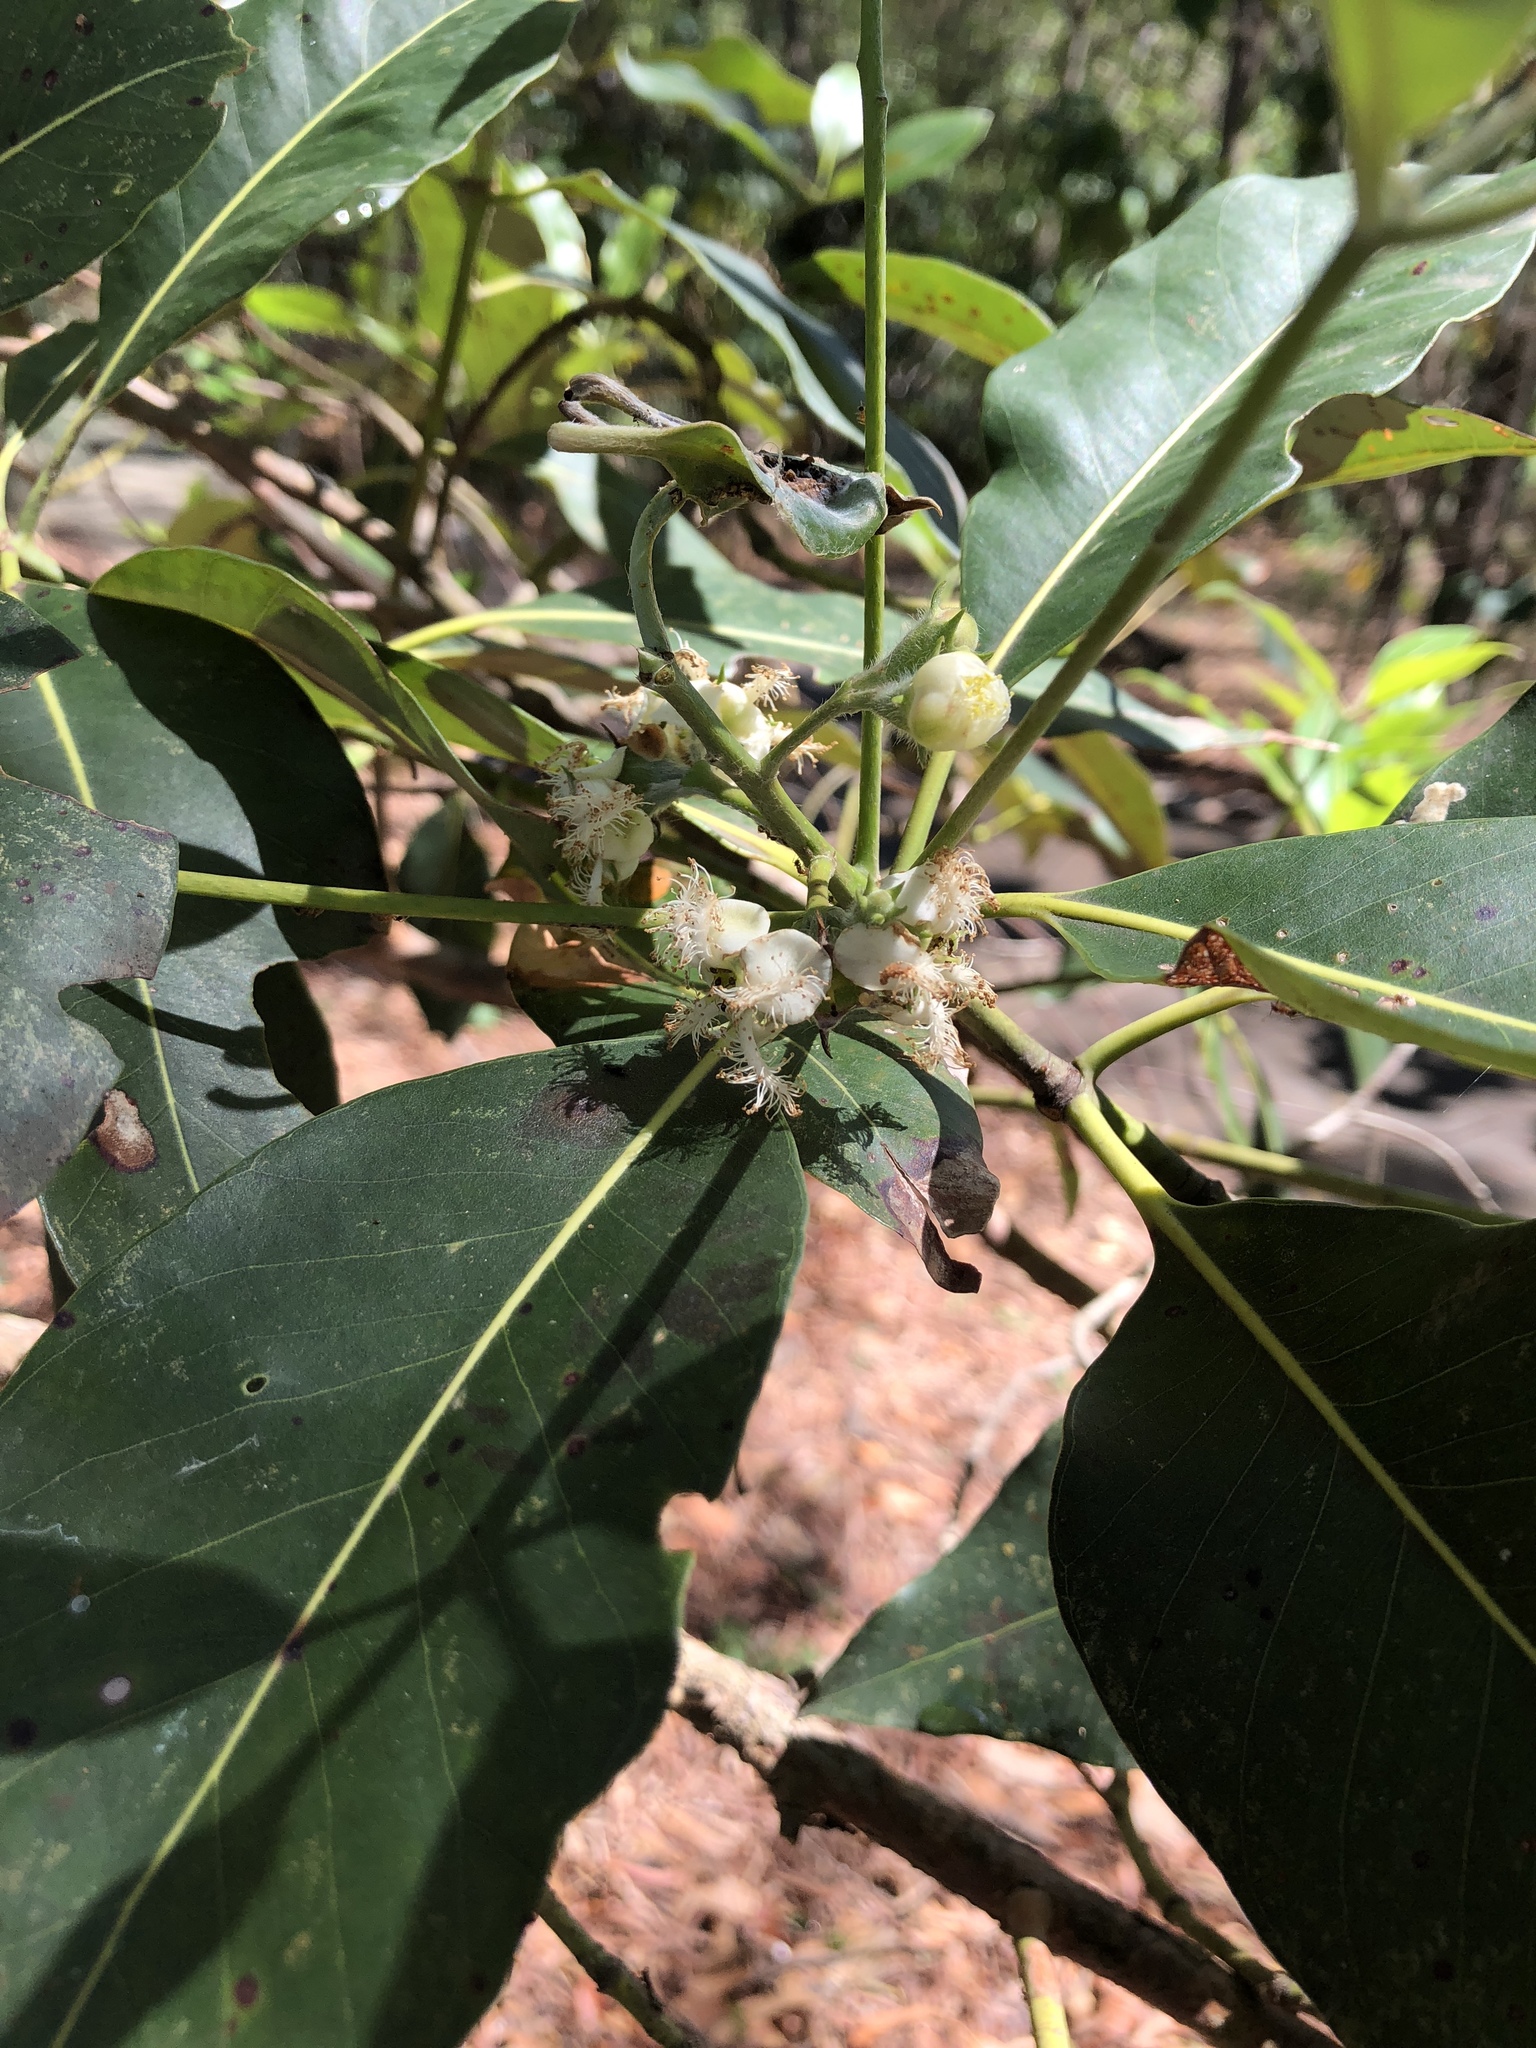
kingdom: Plantae
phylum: Tracheophyta
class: Magnoliopsida
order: Myrtales
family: Myrtaceae
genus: Lophostemon
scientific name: Lophostemon confertus
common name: Brisbane box
